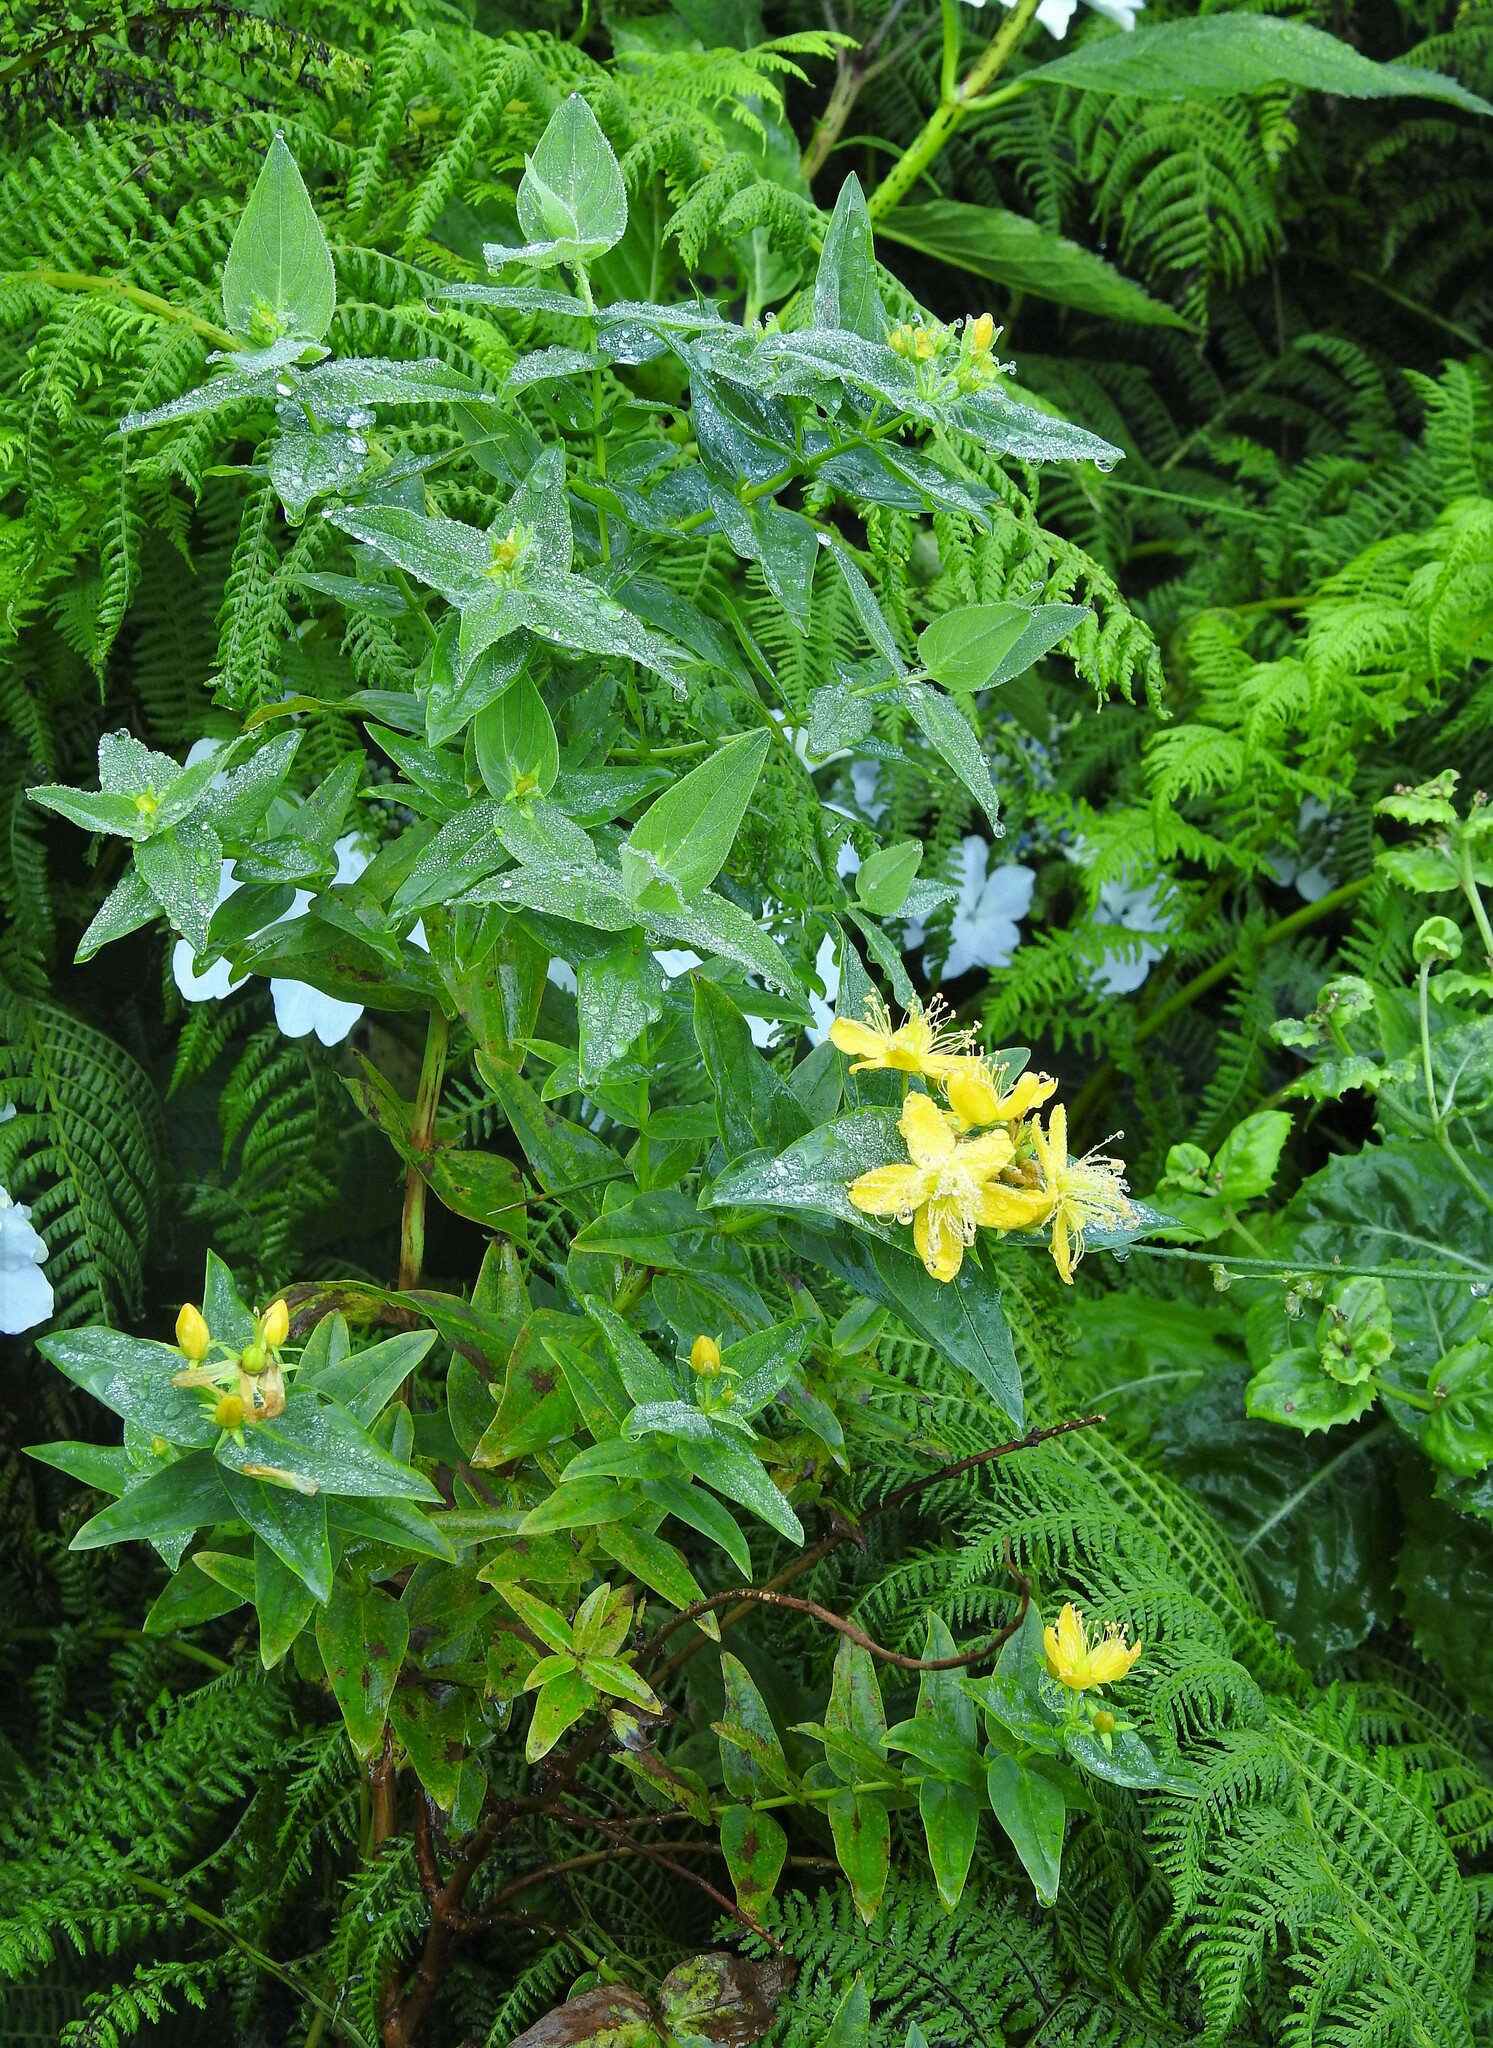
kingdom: Plantae
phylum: Tracheophyta
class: Magnoliopsida
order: Malpighiales
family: Hypericaceae
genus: Hypericum
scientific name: Hypericum foliosum
